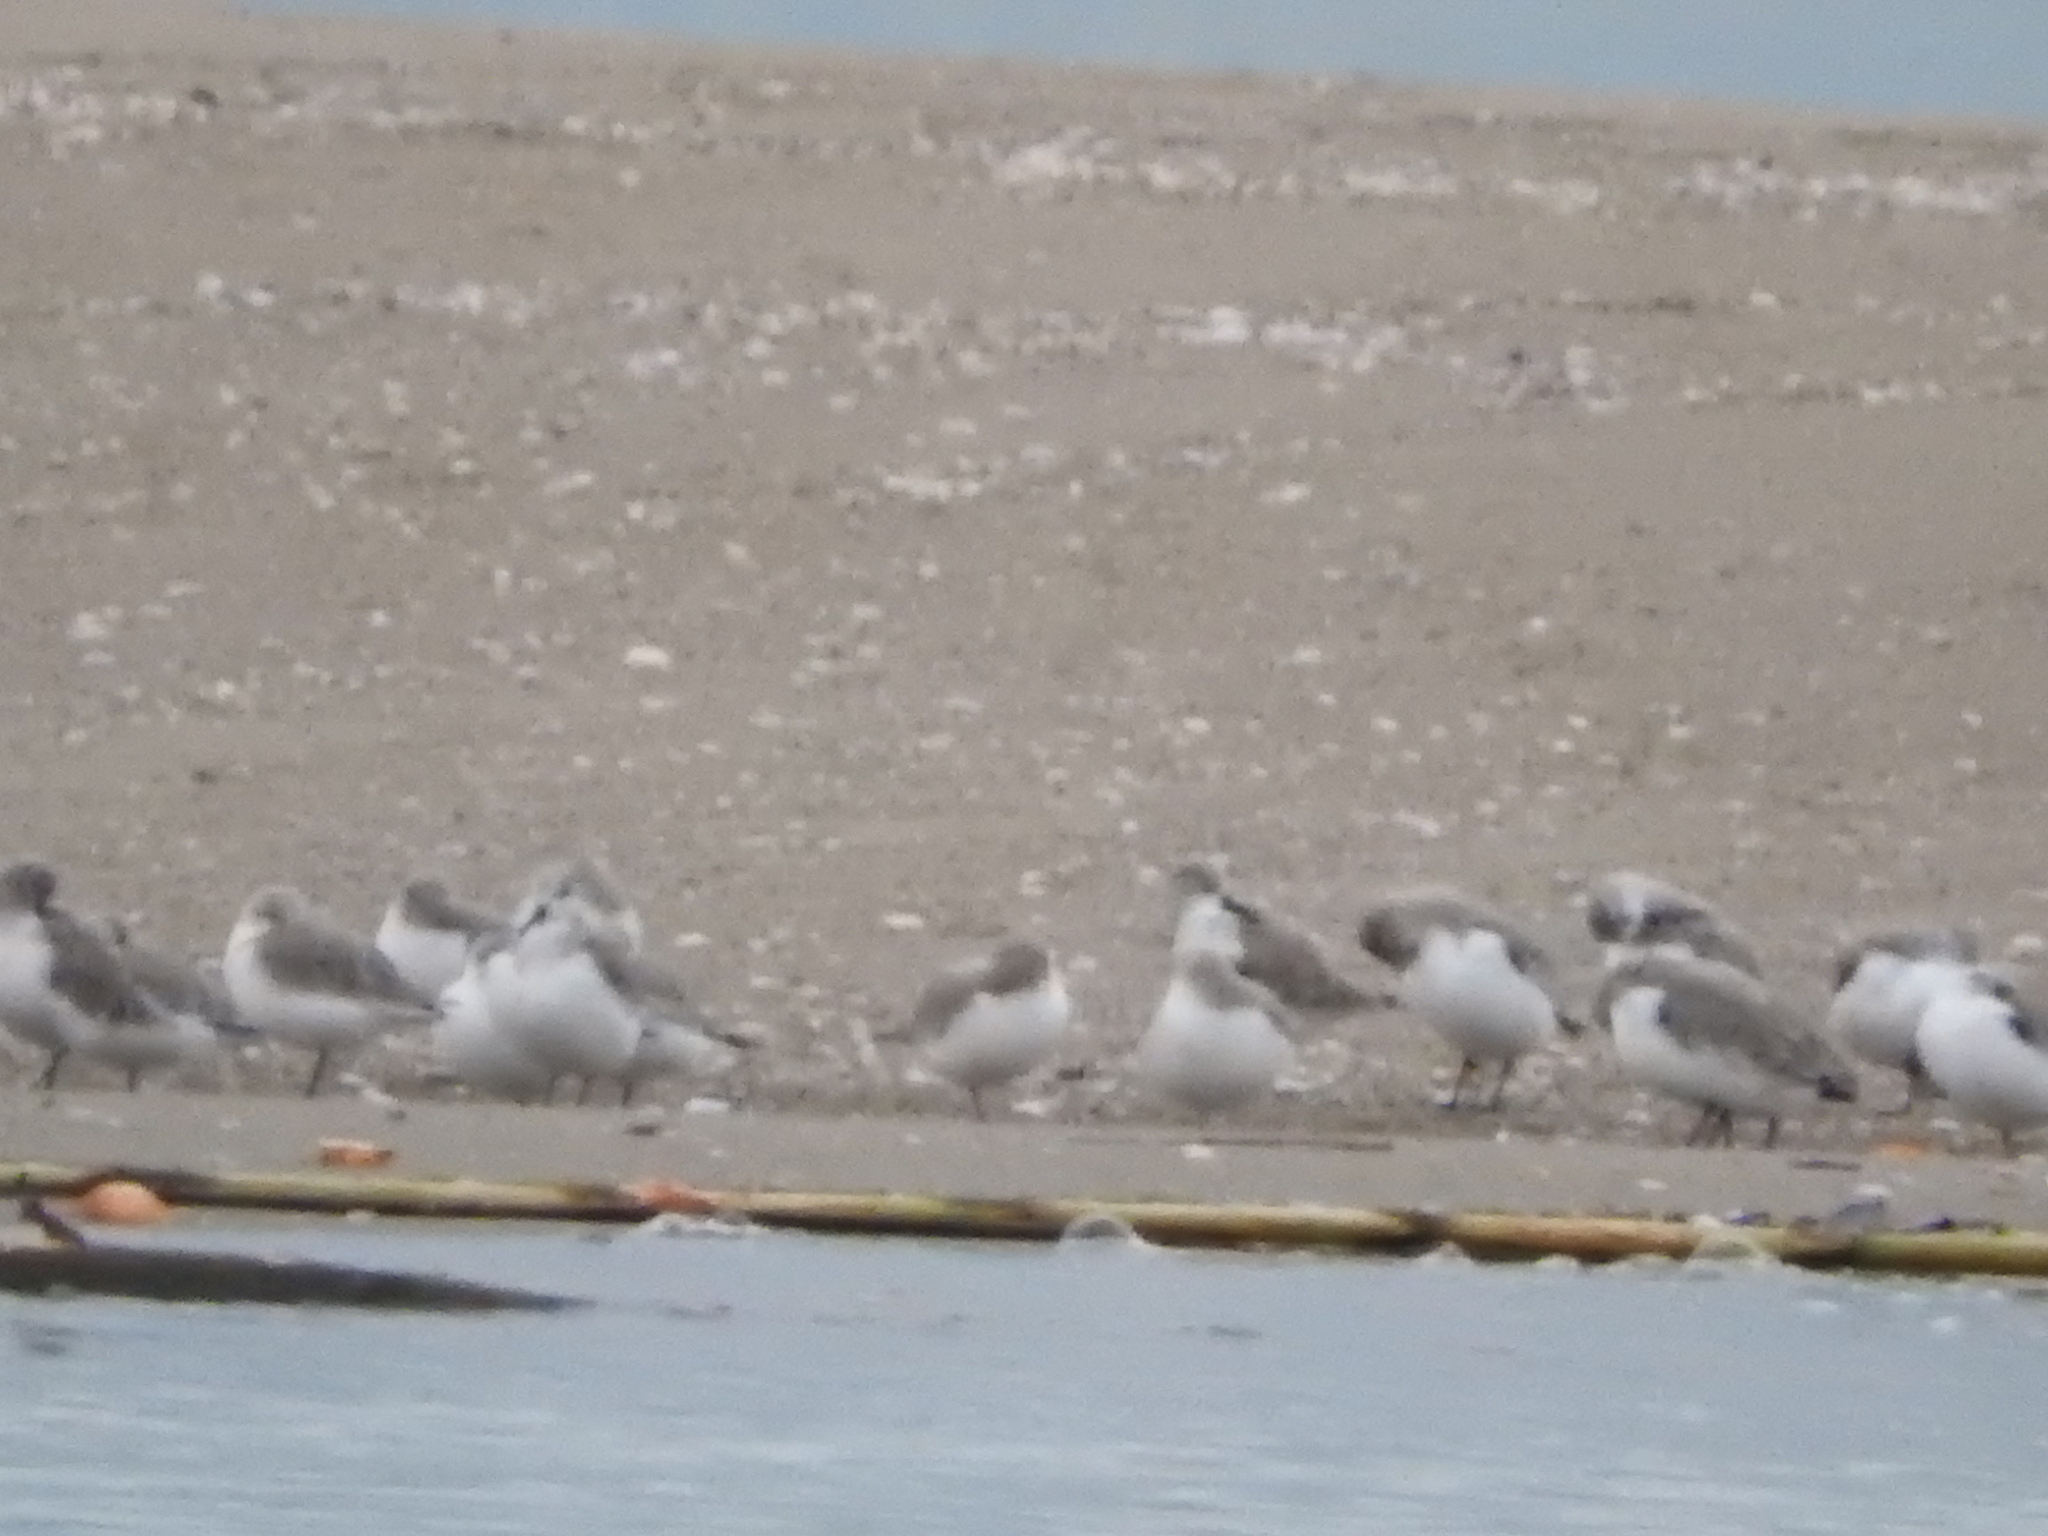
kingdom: Animalia
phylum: Chordata
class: Aves
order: Charadriiformes
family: Scolopacidae
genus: Calidris
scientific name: Calidris alba
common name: Sanderling
